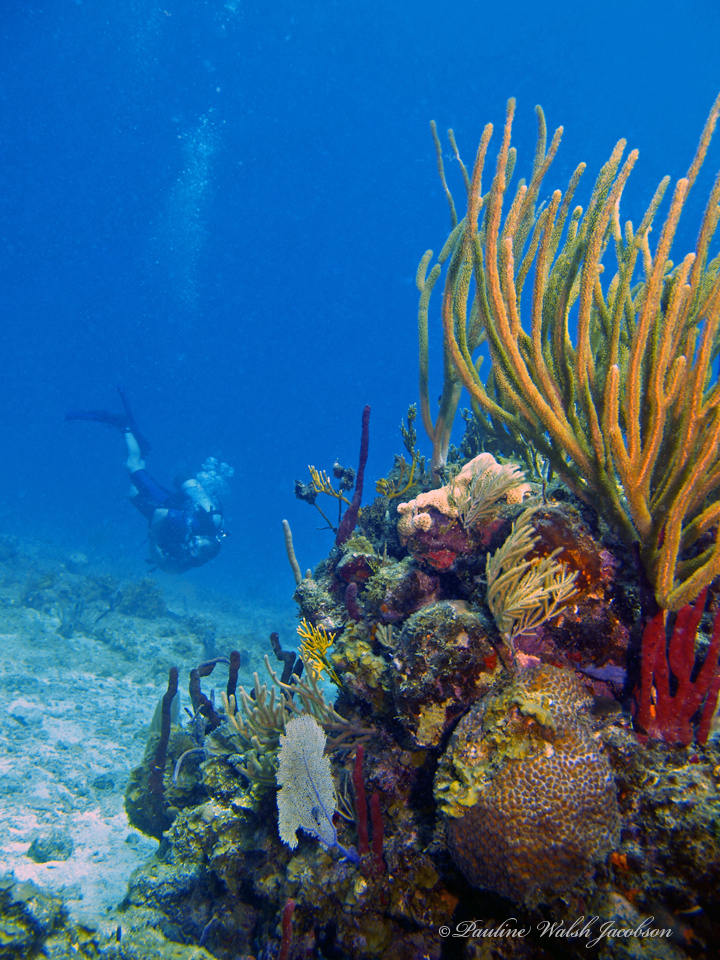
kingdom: Animalia
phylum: Cnidaria
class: Anthozoa
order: Scleractinia
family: Montastraeidae
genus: Montastraea
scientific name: Montastraea cavernosa
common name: Great star coral
